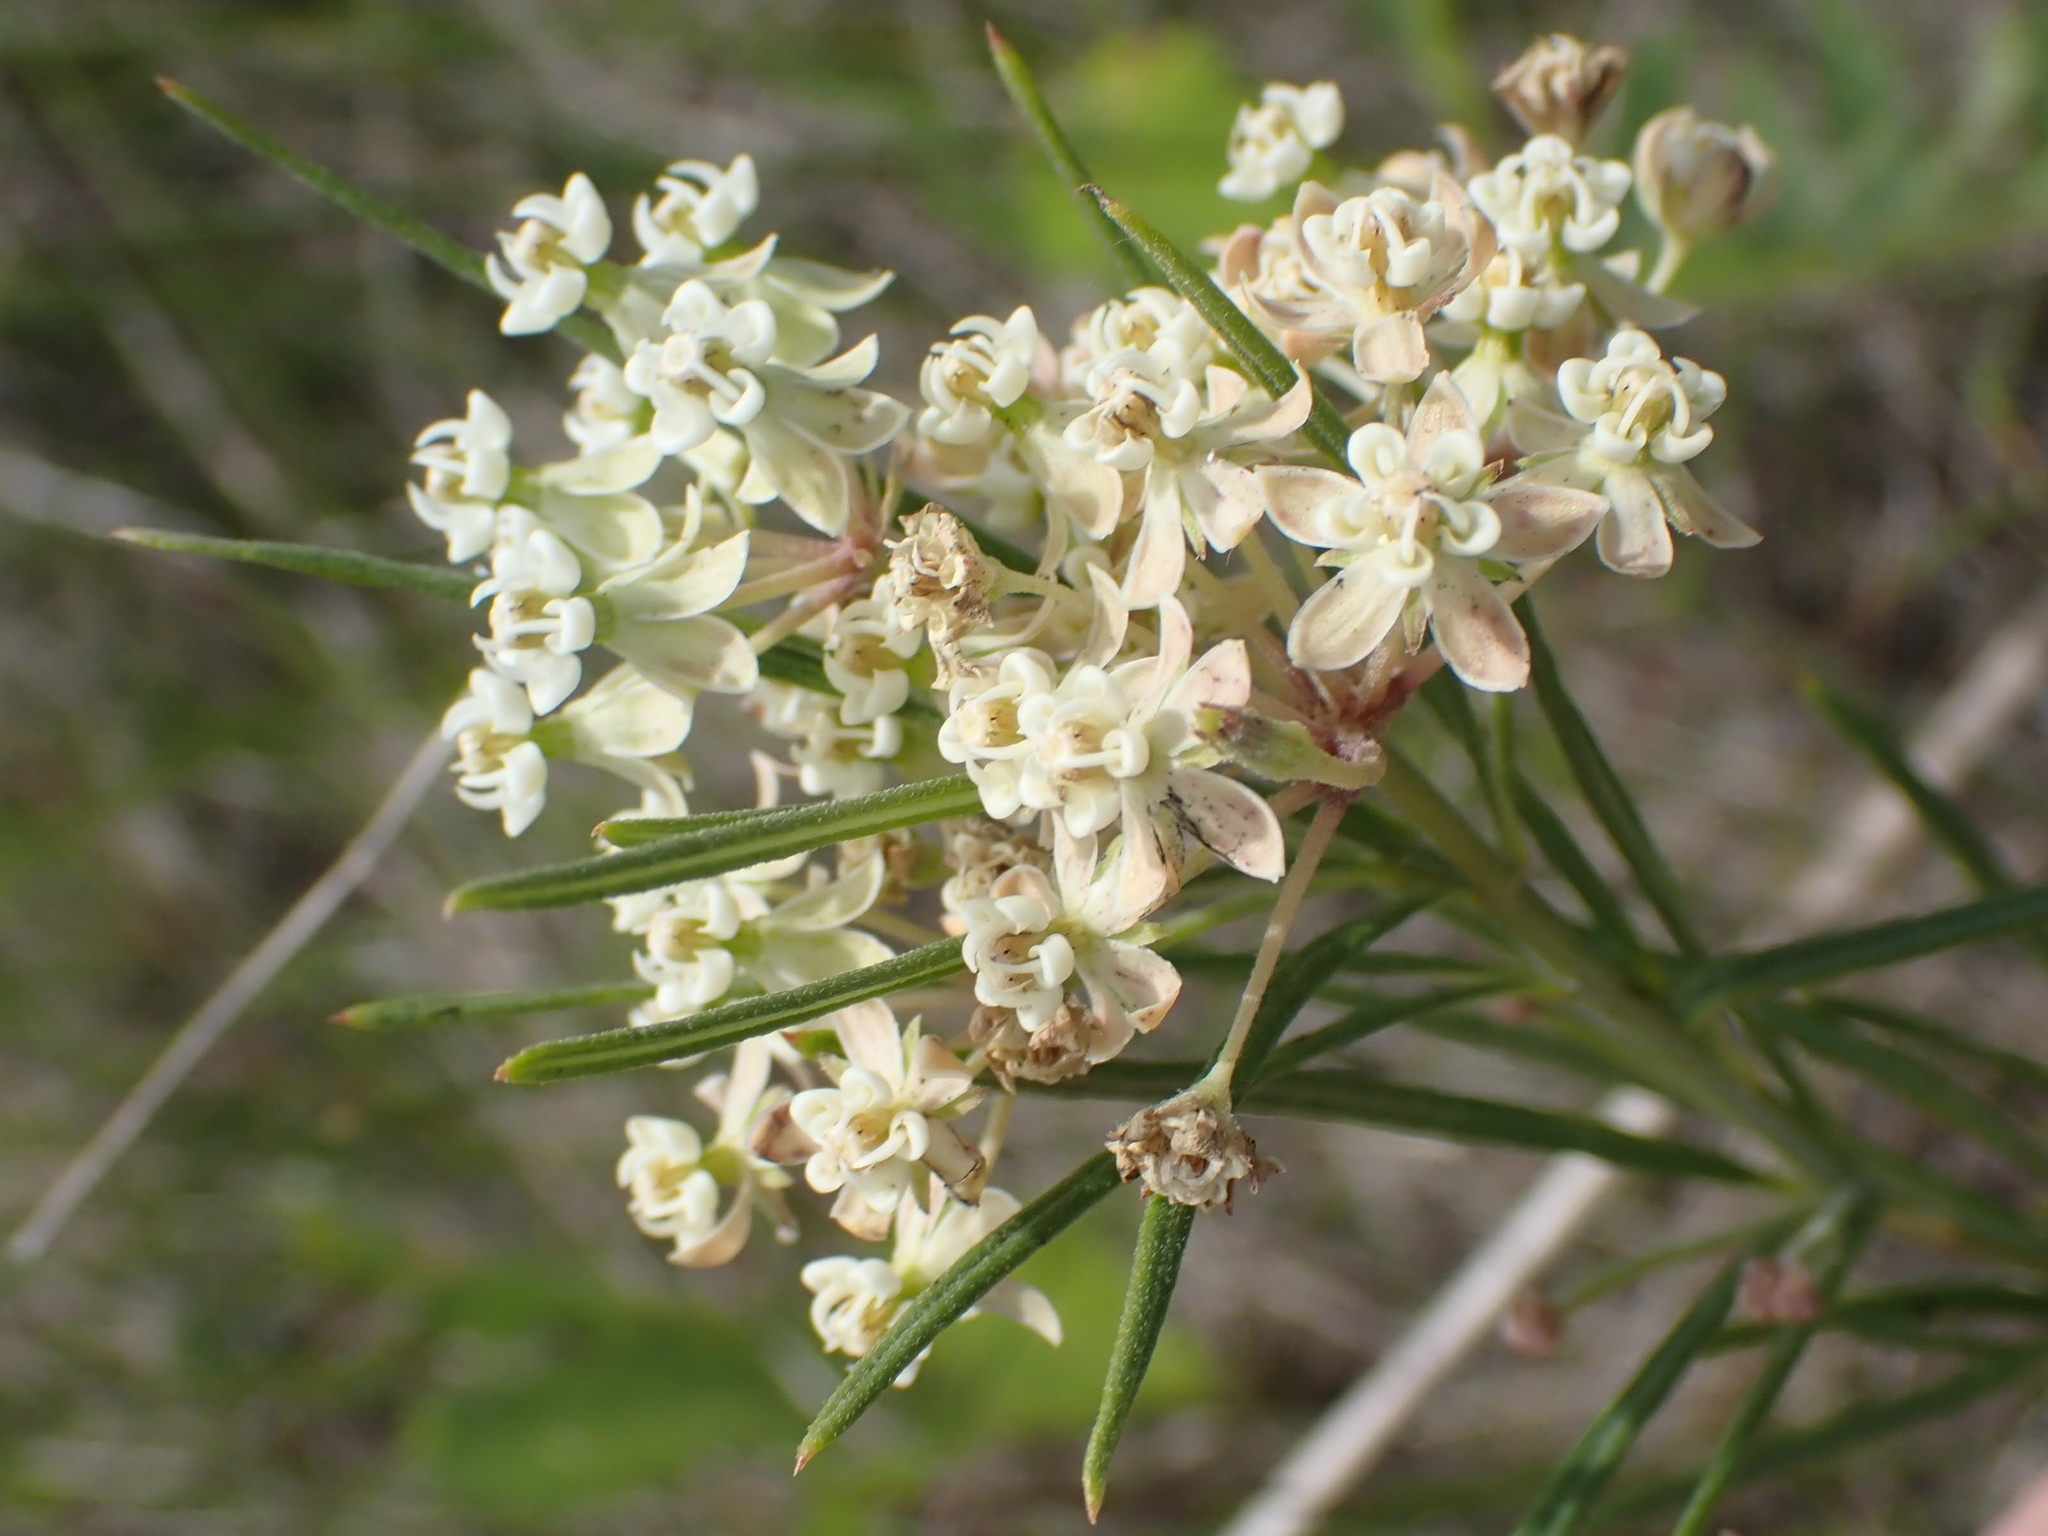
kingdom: Plantae
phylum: Tracheophyta
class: Magnoliopsida
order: Gentianales
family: Apocynaceae
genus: Asclepias
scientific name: Asclepias verticillata
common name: Eastern whorled milkweed
